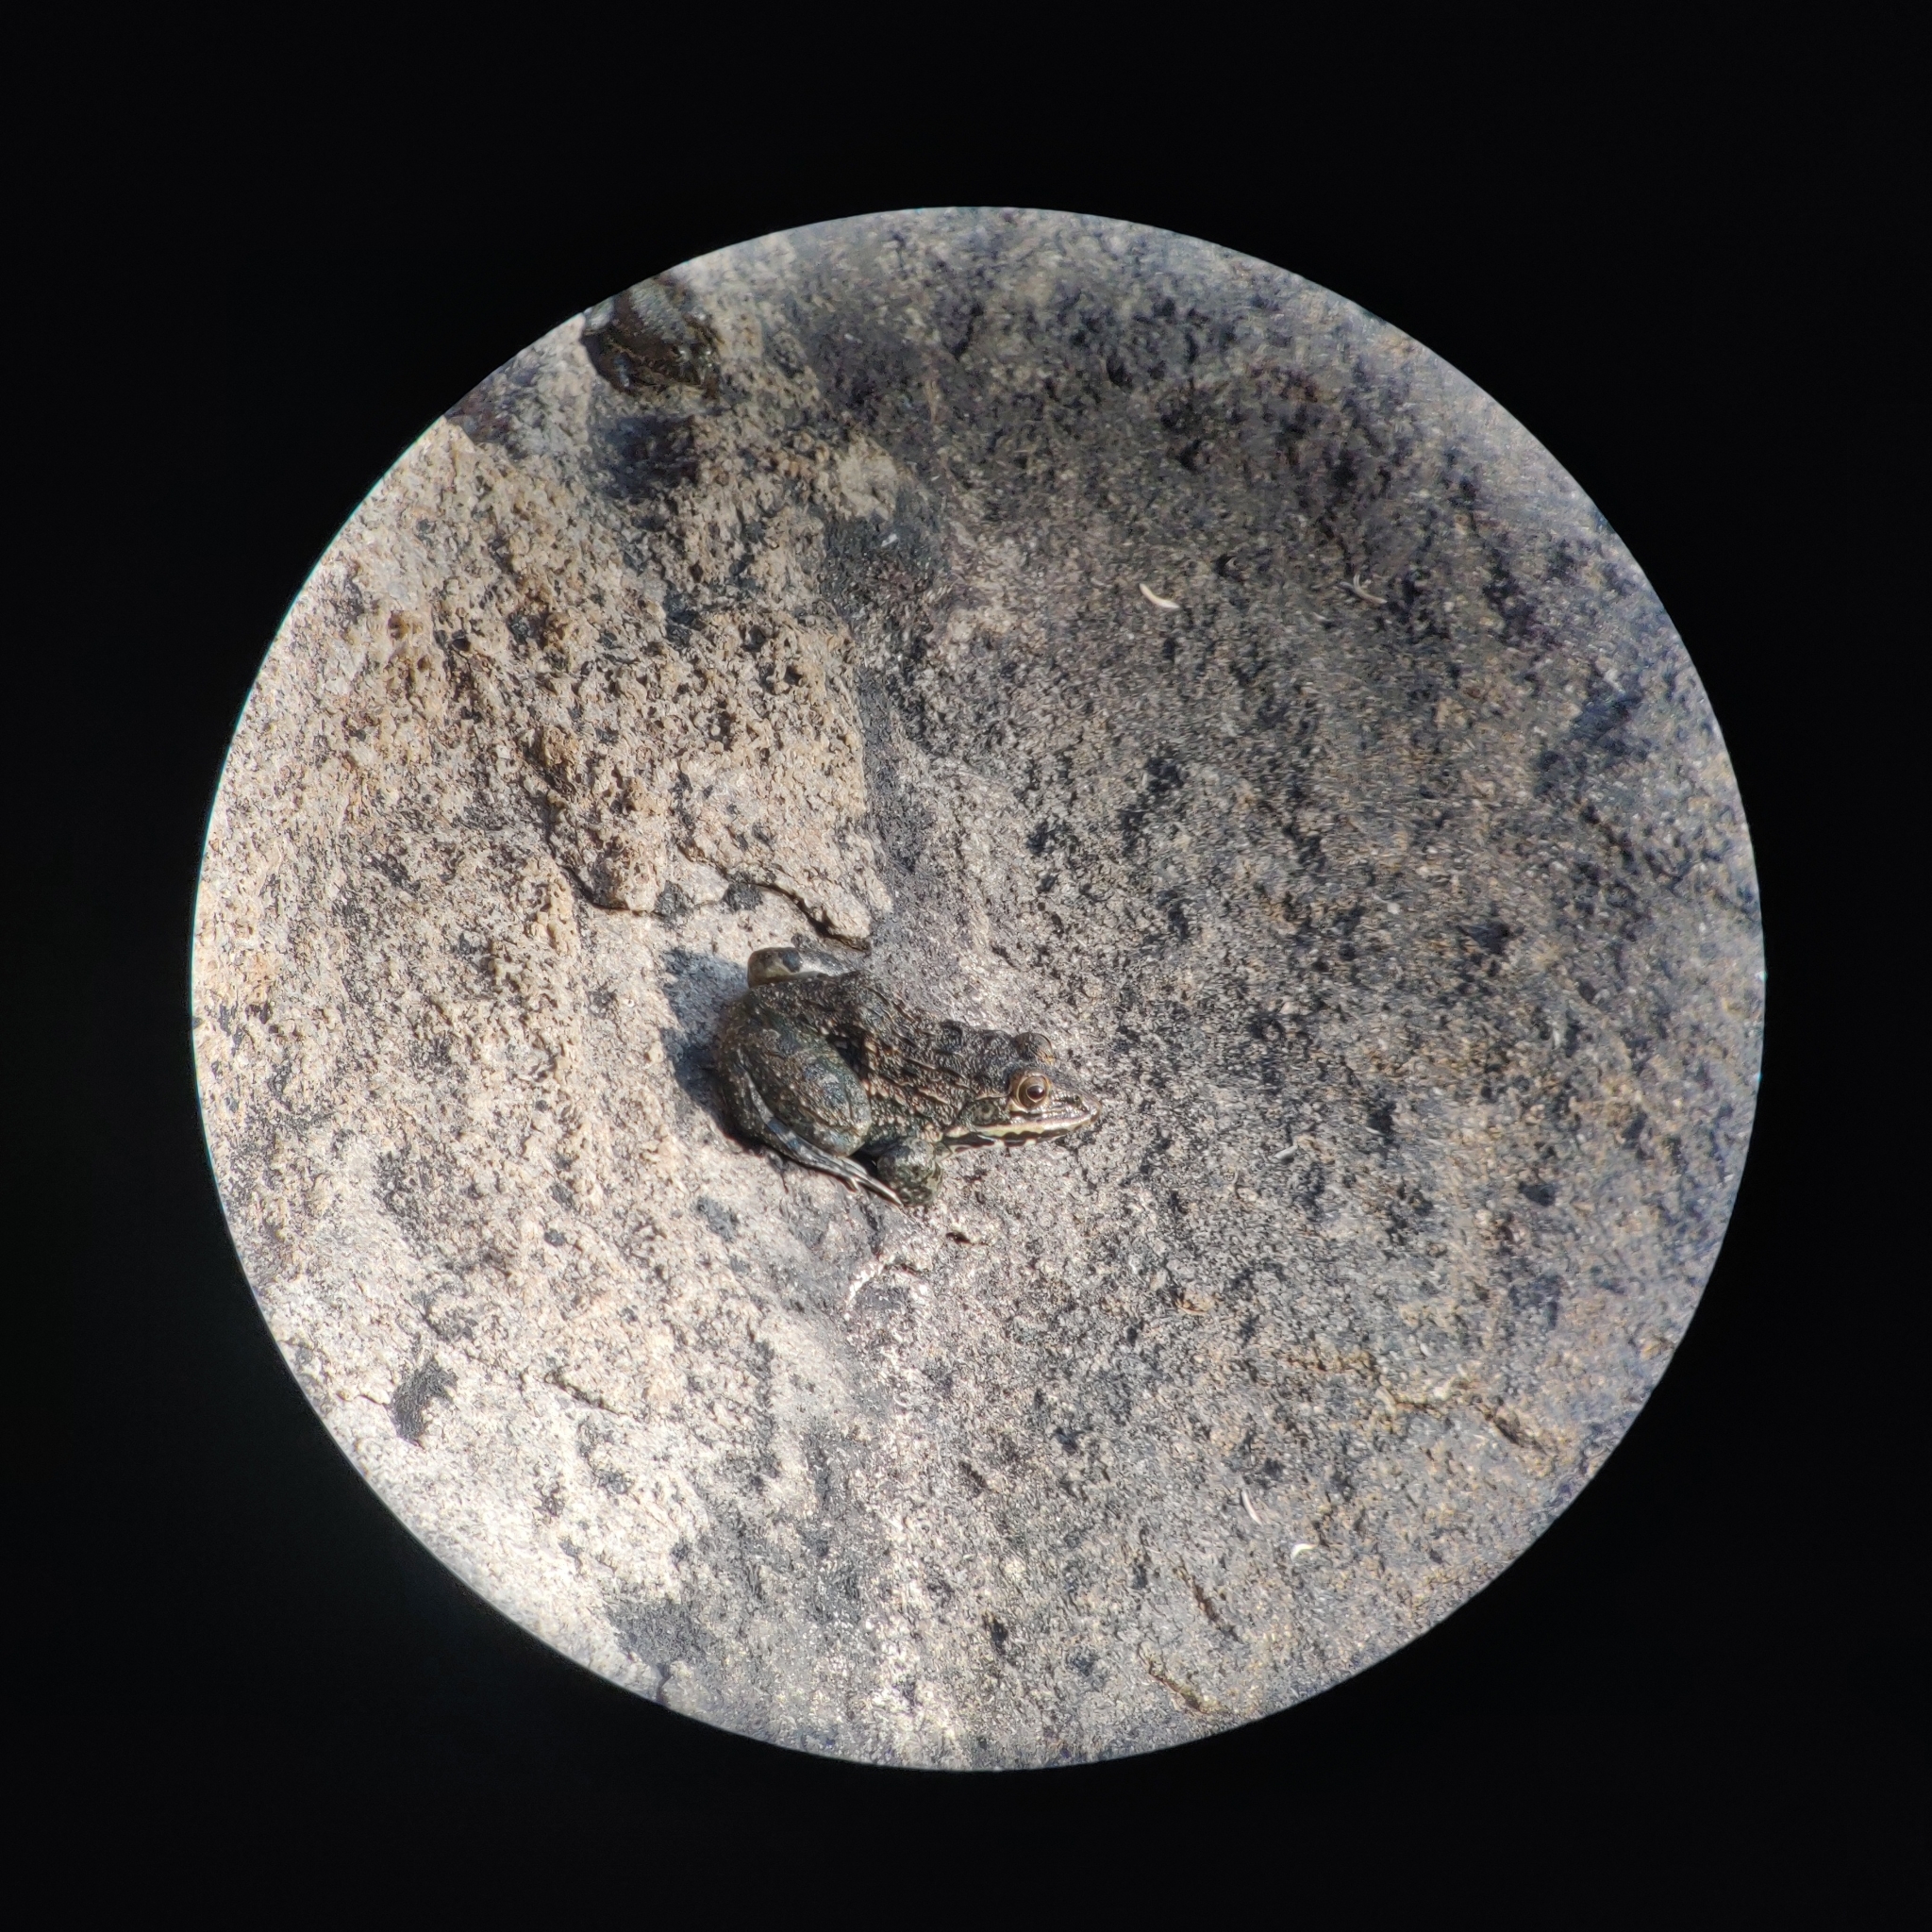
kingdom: Animalia
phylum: Chordata
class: Amphibia
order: Anura
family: Dicroglossidae
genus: Hoplobatrachus
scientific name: Hoplobatrachus tigerinus
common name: Indian bullfrog
